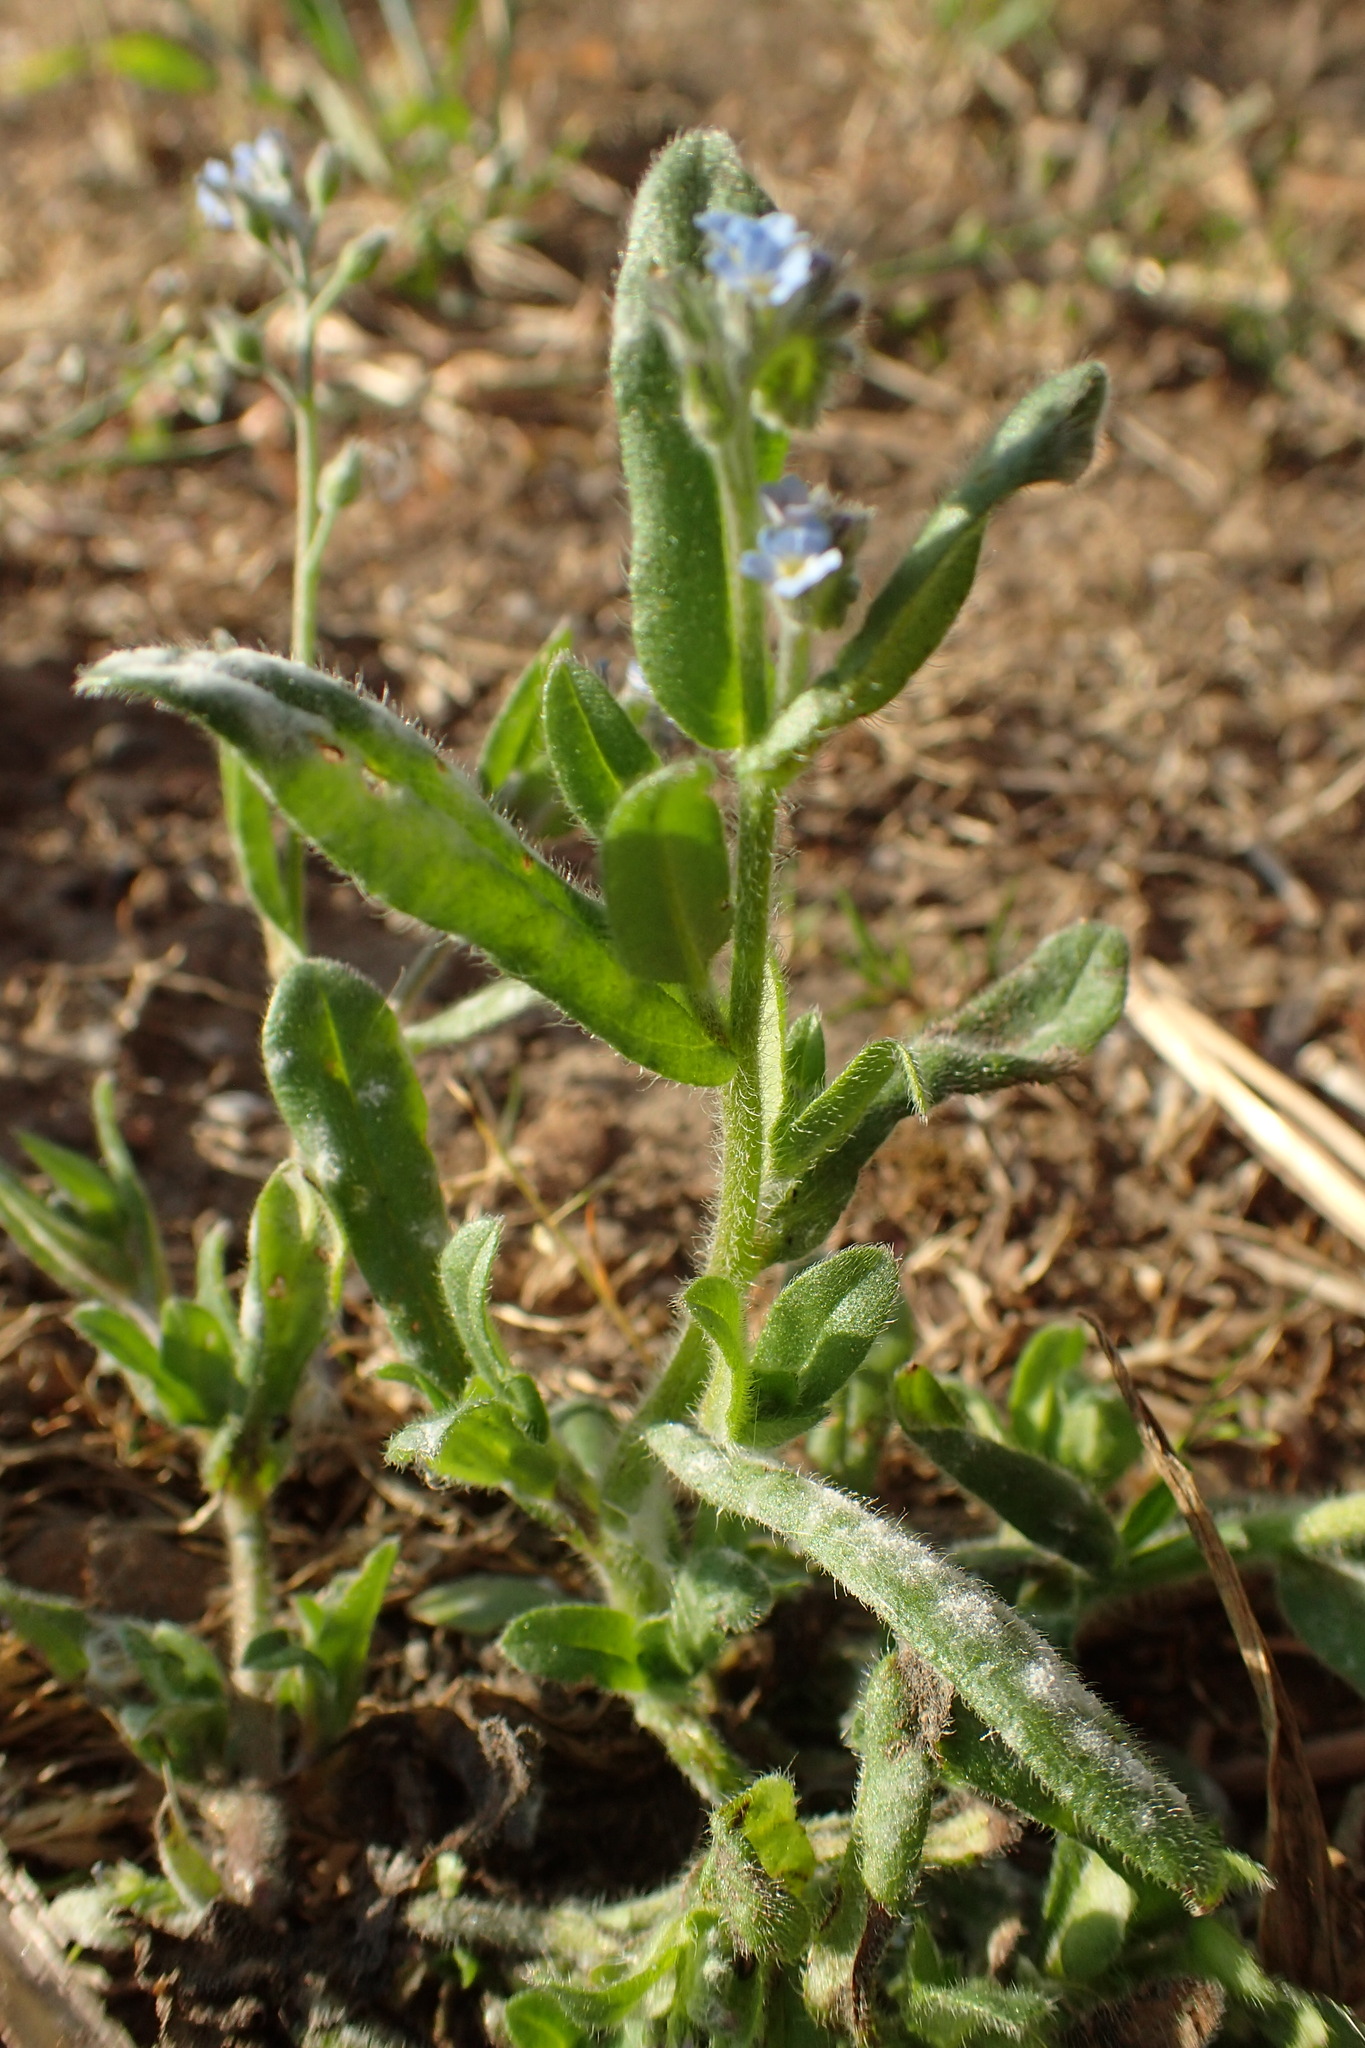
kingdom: Plantae
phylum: Tracheophyta
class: Magnoliopsida
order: Boraginales
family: Boraginaceae
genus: Myosotis
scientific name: Myosotis arvensis
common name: Field forget-me-not
